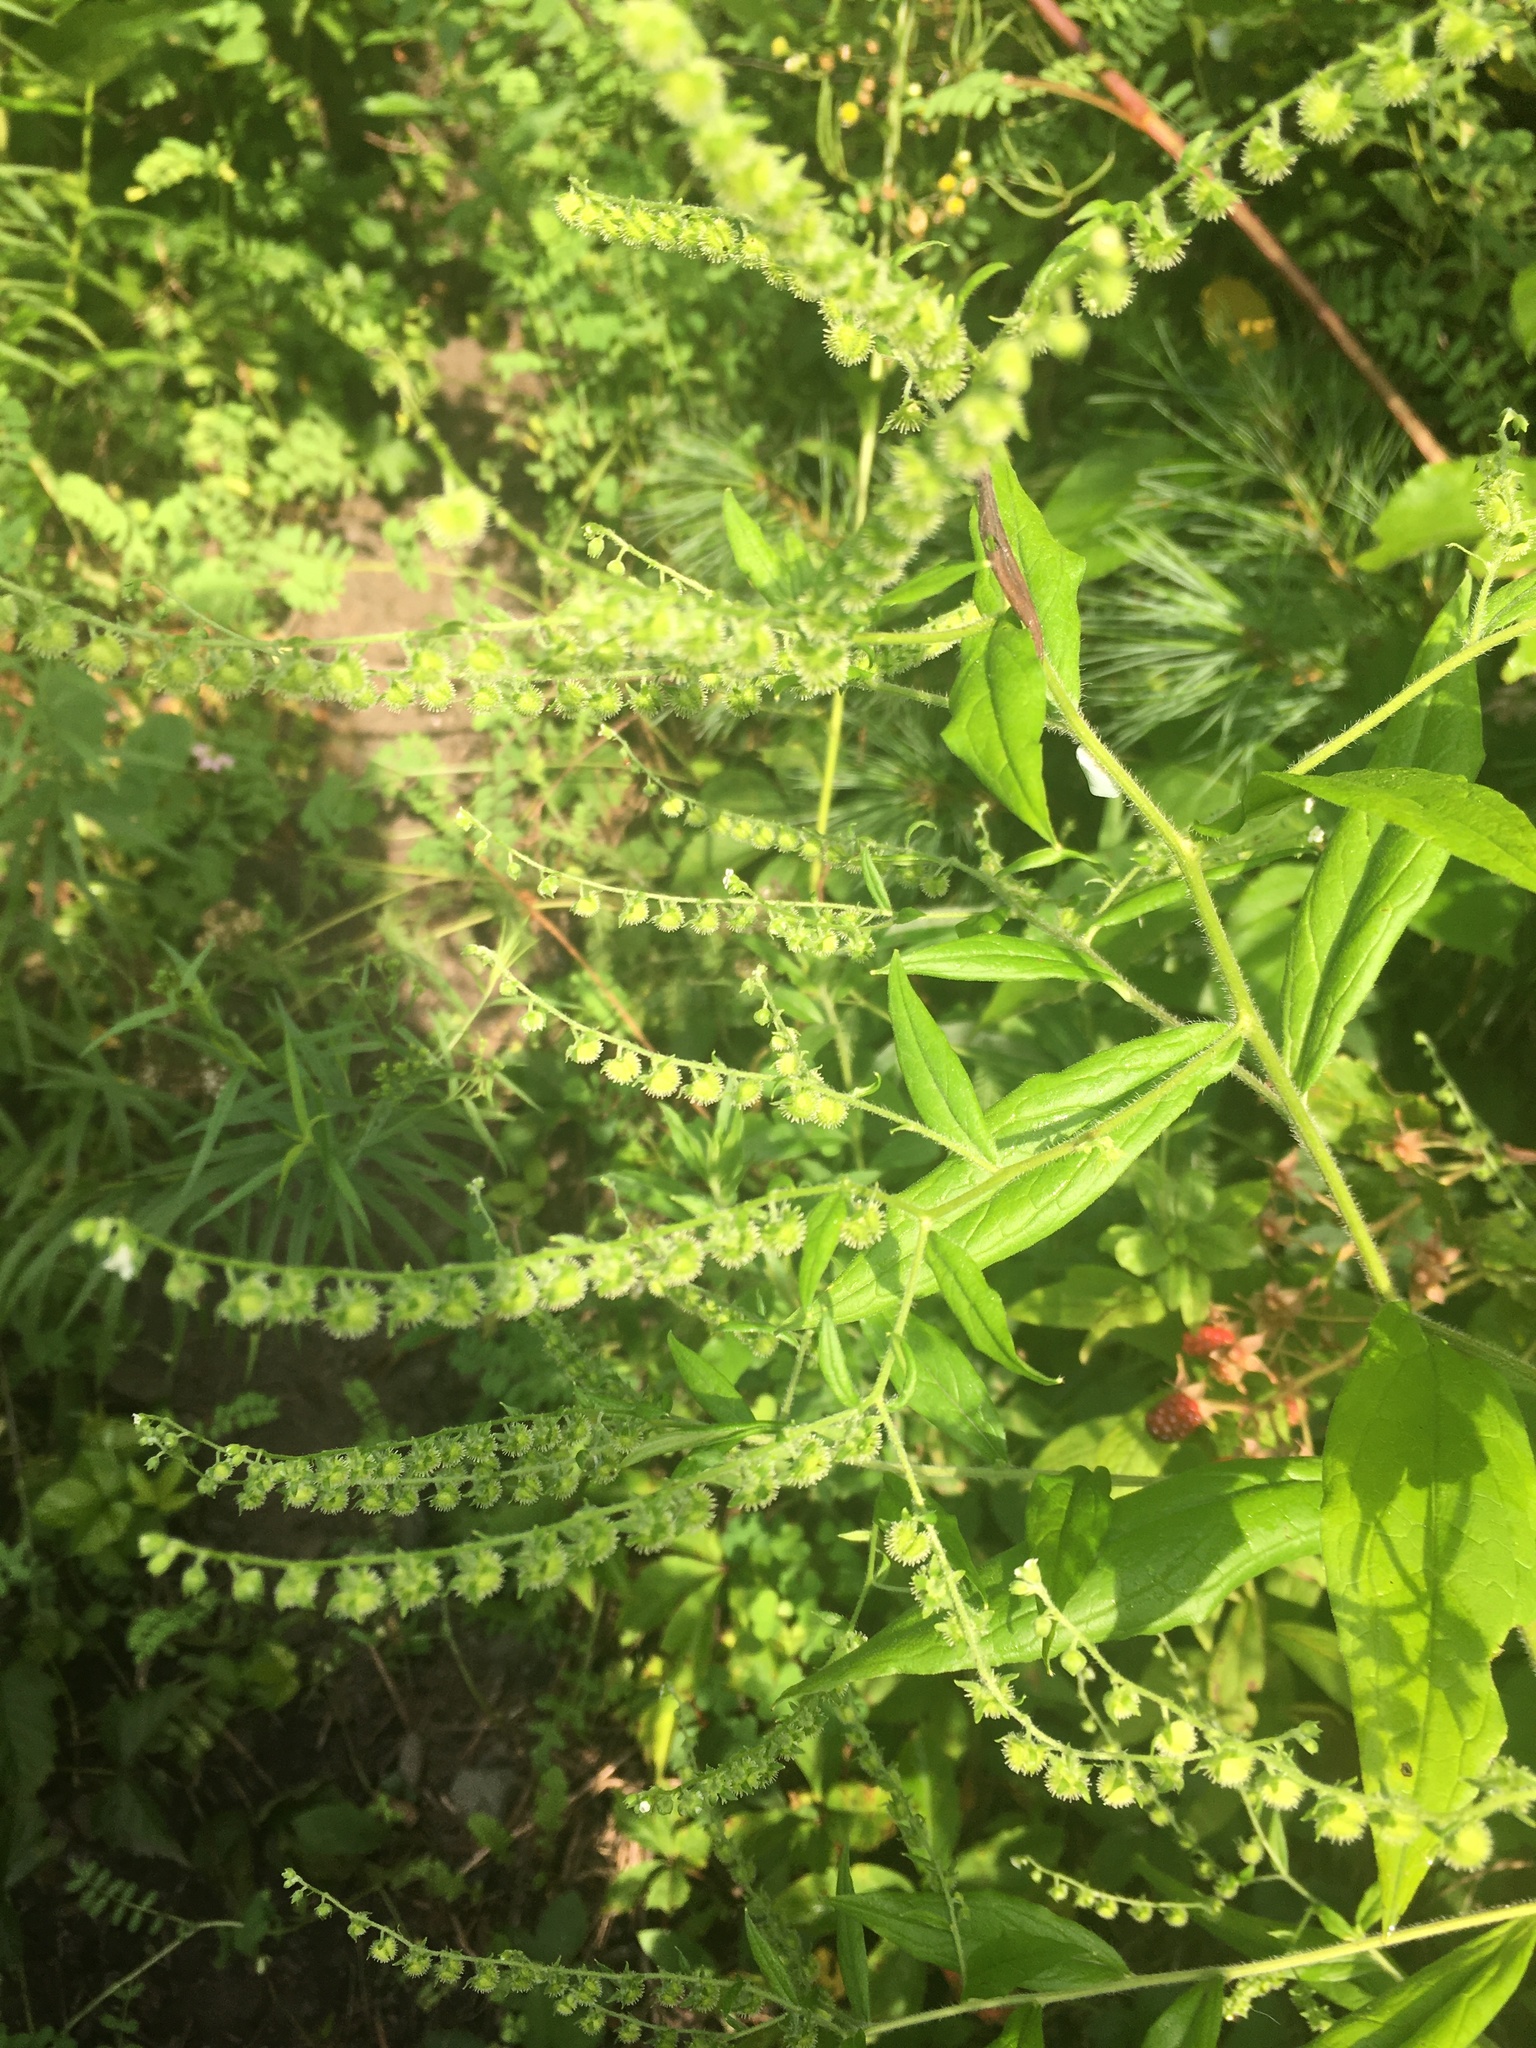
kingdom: Plantae
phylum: Tracheophyta
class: Magnoliopsida
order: Boraginales
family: Boraginaceae
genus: Hackelia
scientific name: Hackelia virginiana
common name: Beggar's-lice
